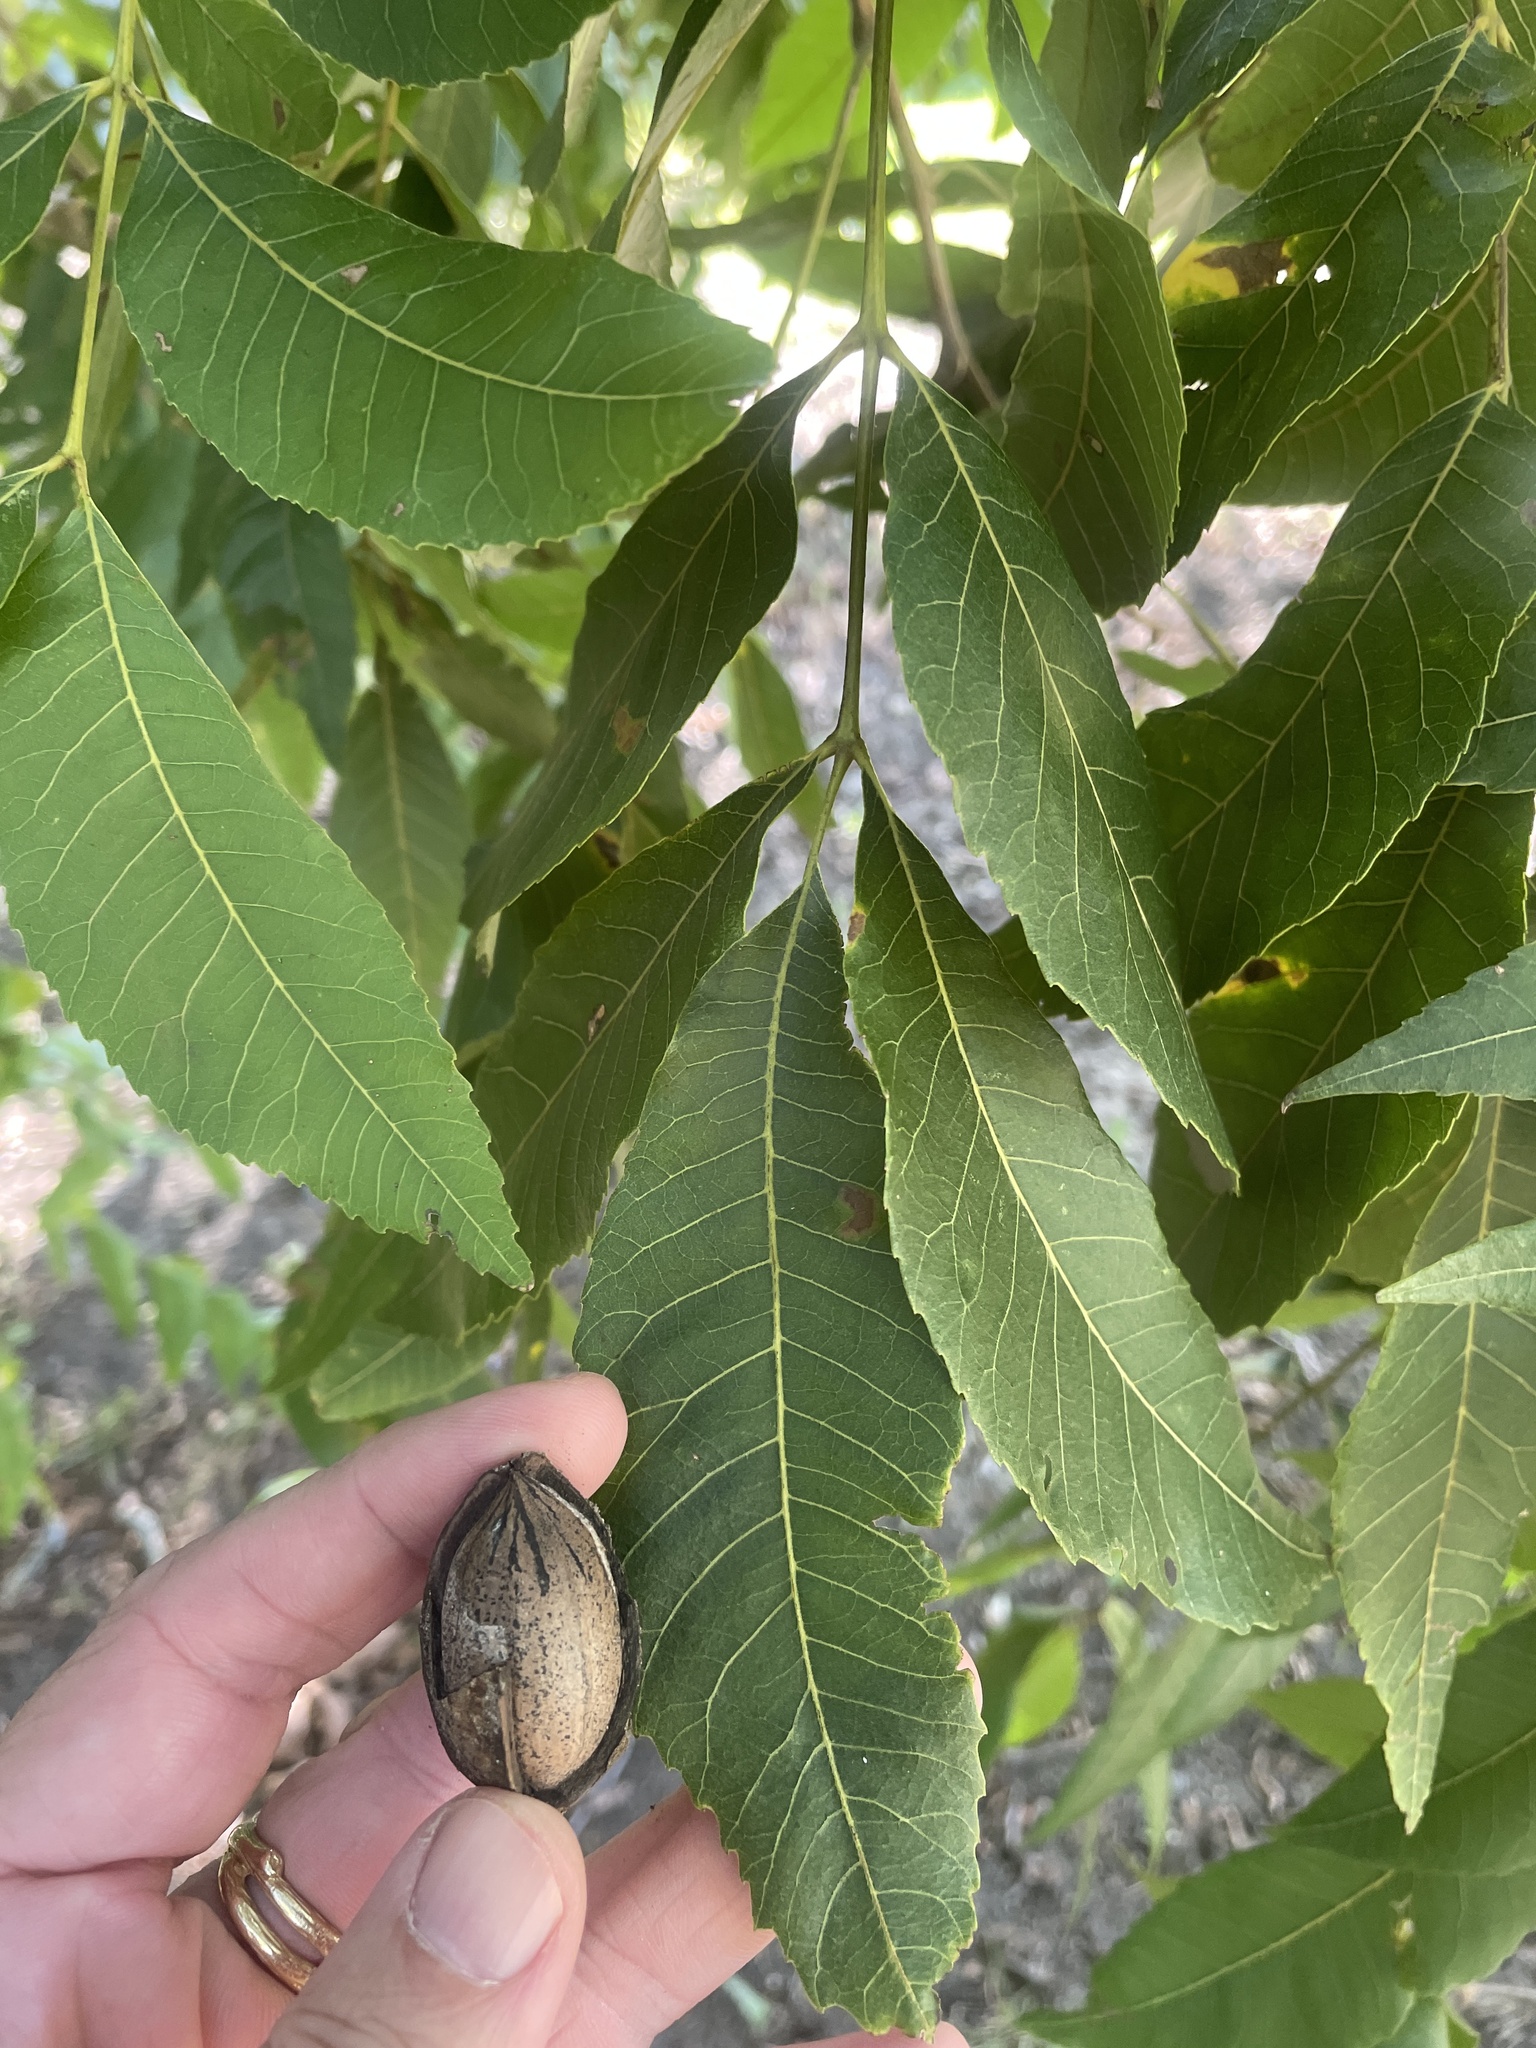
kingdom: Plantae
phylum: Tracheophyta
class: Magnoliopsida
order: Fagales
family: Juglandaceae
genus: Carya
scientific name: Carya illinoinensis
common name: Pecan
